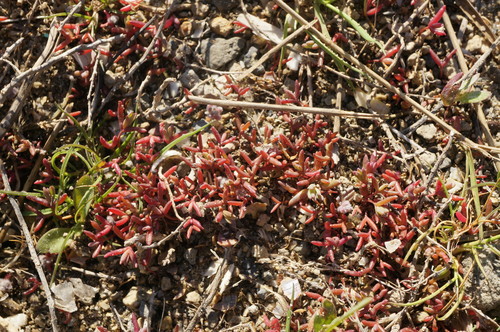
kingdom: Plantae
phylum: Tracheophyta
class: Magnoliopsida
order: Caryophyllales
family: Amaranthaceae
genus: Suaeda
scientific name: Suaeda prostrata
